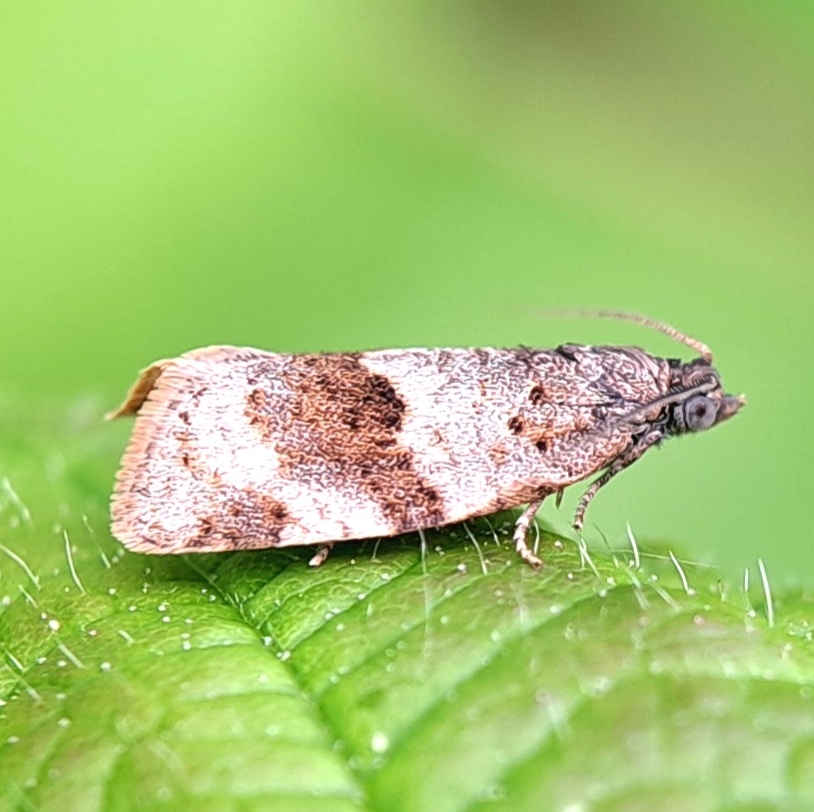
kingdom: Animalia
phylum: Arthropoda
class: Insecta
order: Lepidoptera
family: Tortricidae
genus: Syndemis
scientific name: Syndemis musculana
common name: Dark-barred twist
